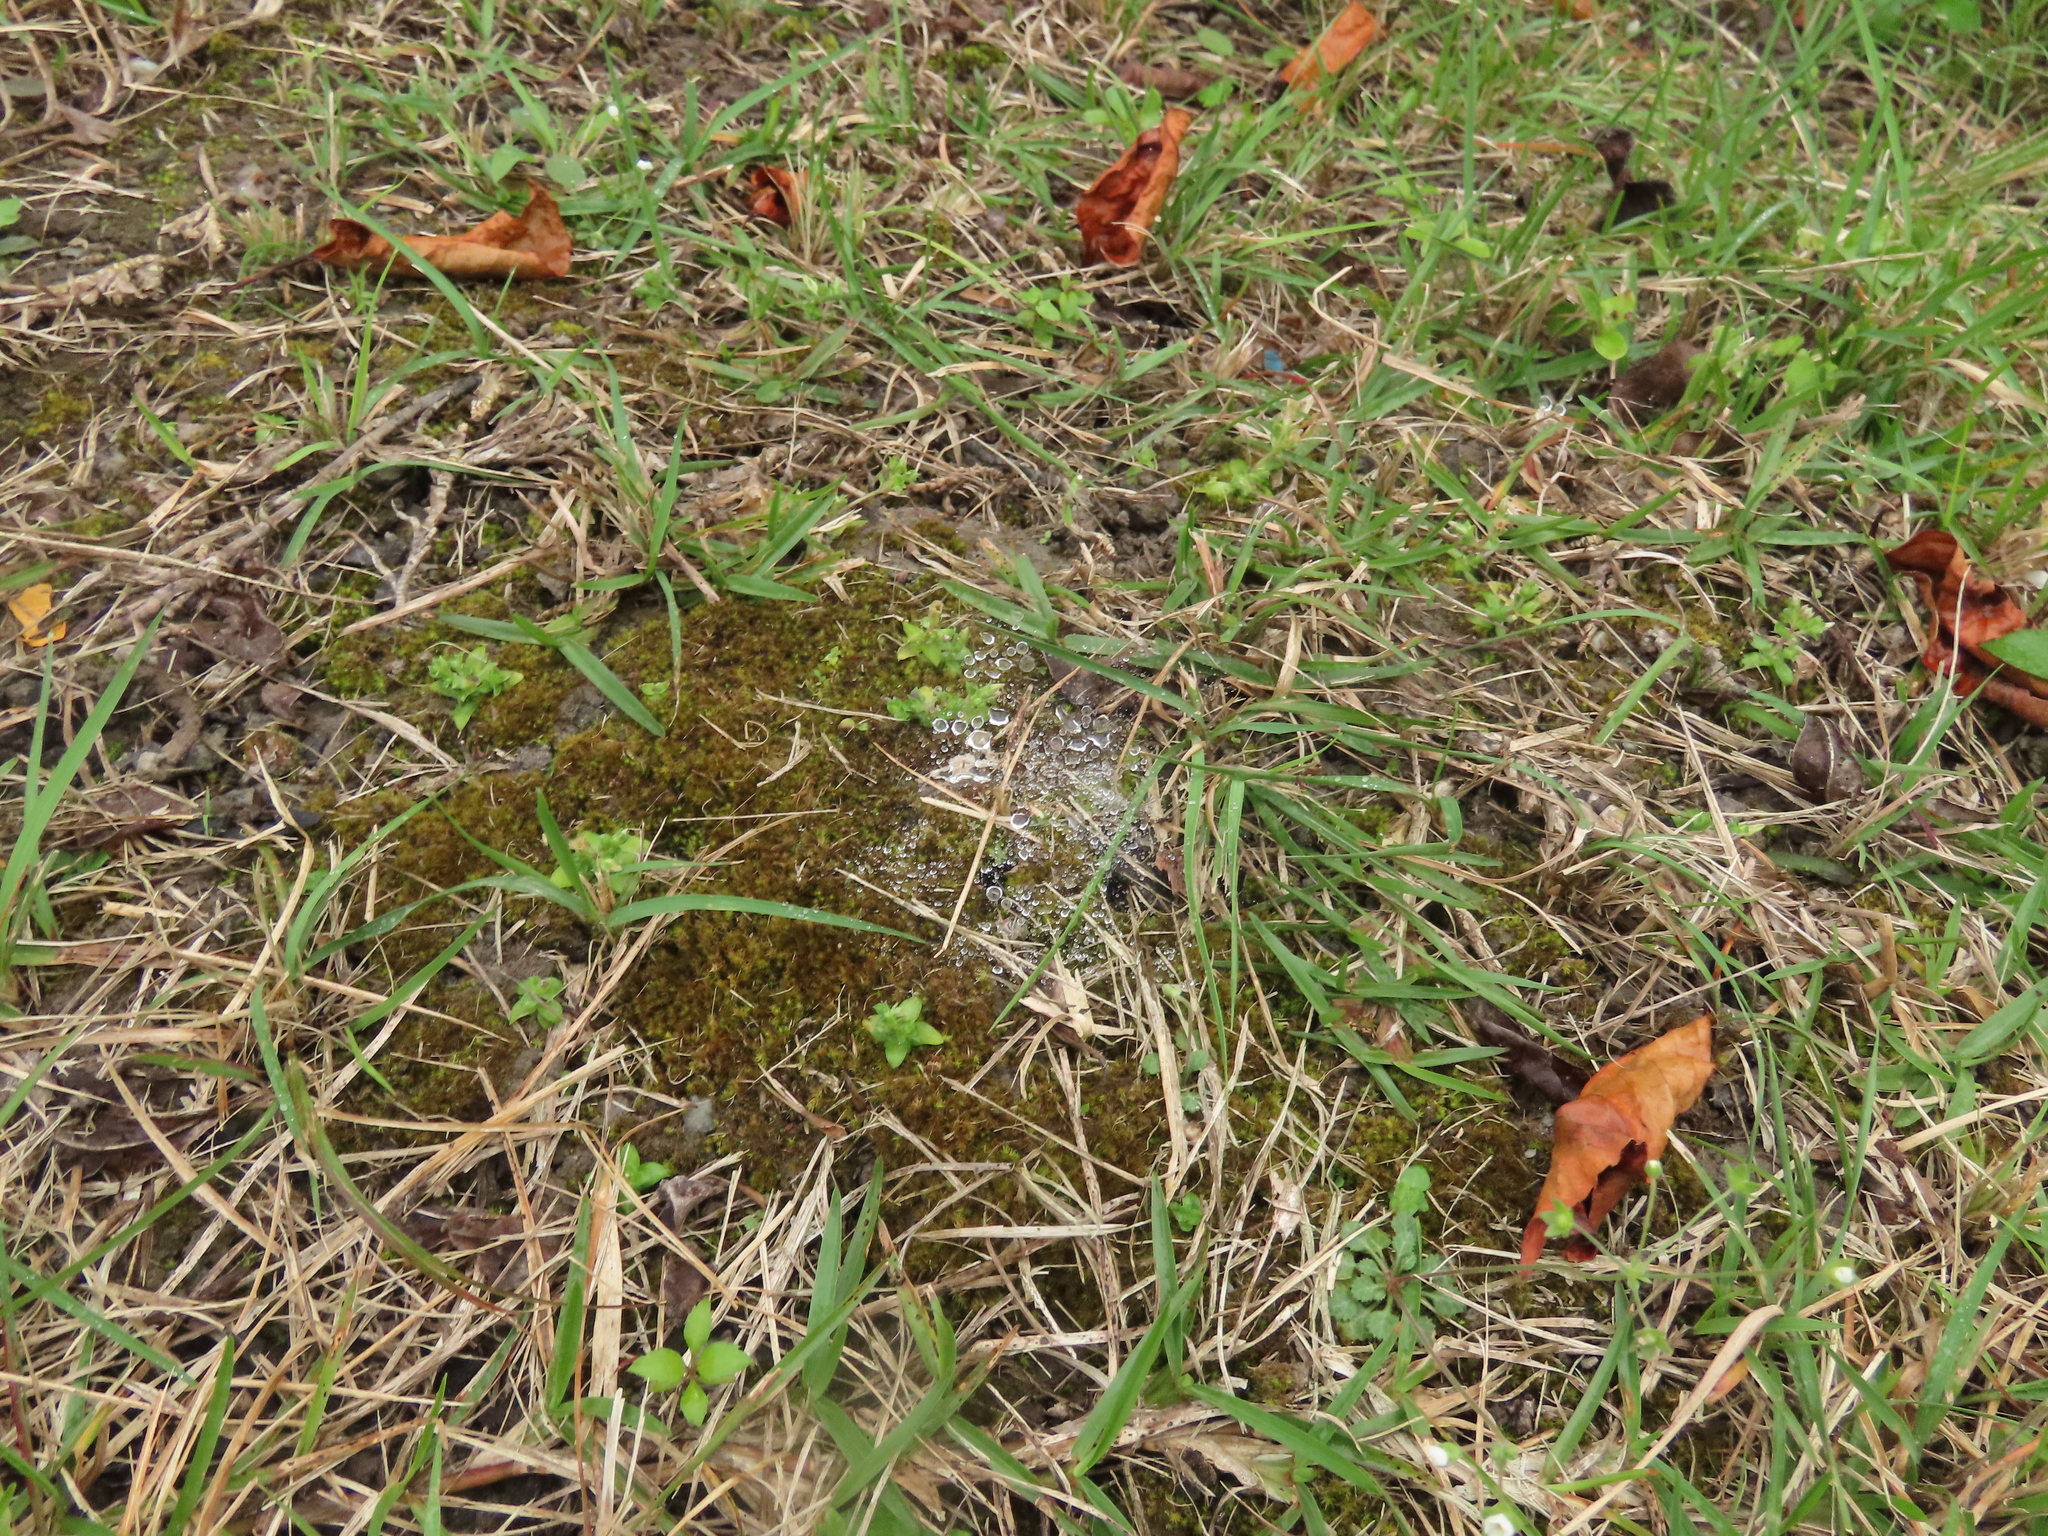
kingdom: Plantae
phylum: Tracheophyta
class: Magnoliopsida
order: Gentianales
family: Gentianaceae
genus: Gentiana
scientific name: Gentiana yokusai
